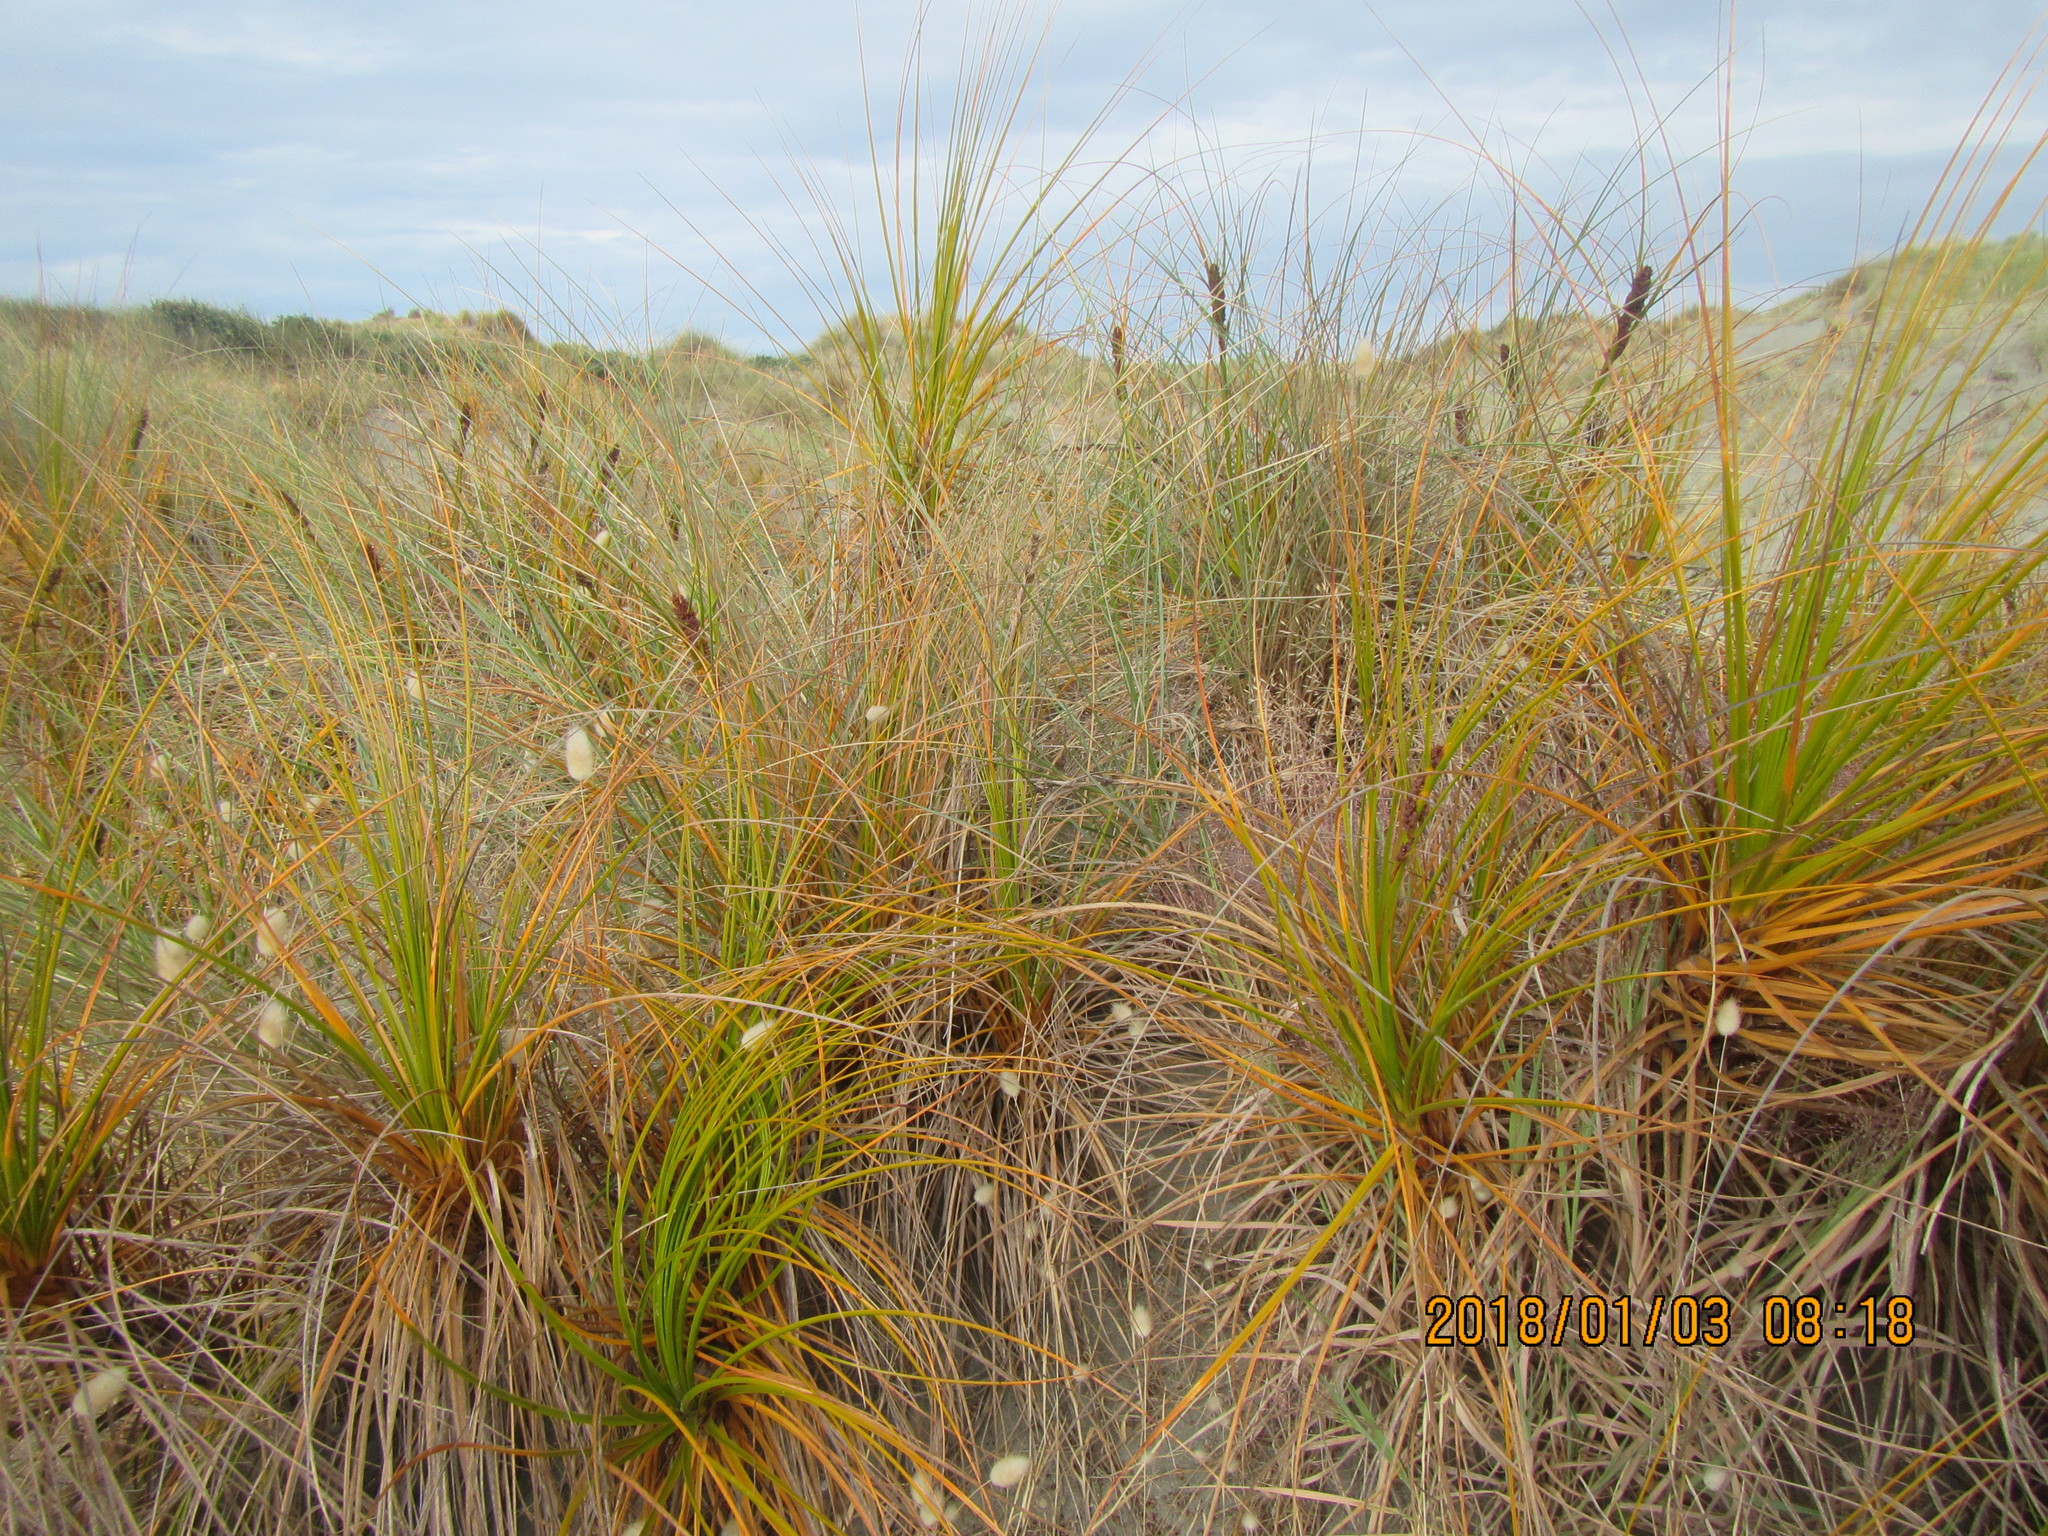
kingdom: Plantae
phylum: Tracheophyta
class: Liliopsida
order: Poales
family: Cyperaceae
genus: Ficinia
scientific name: Ficinia spiralis
